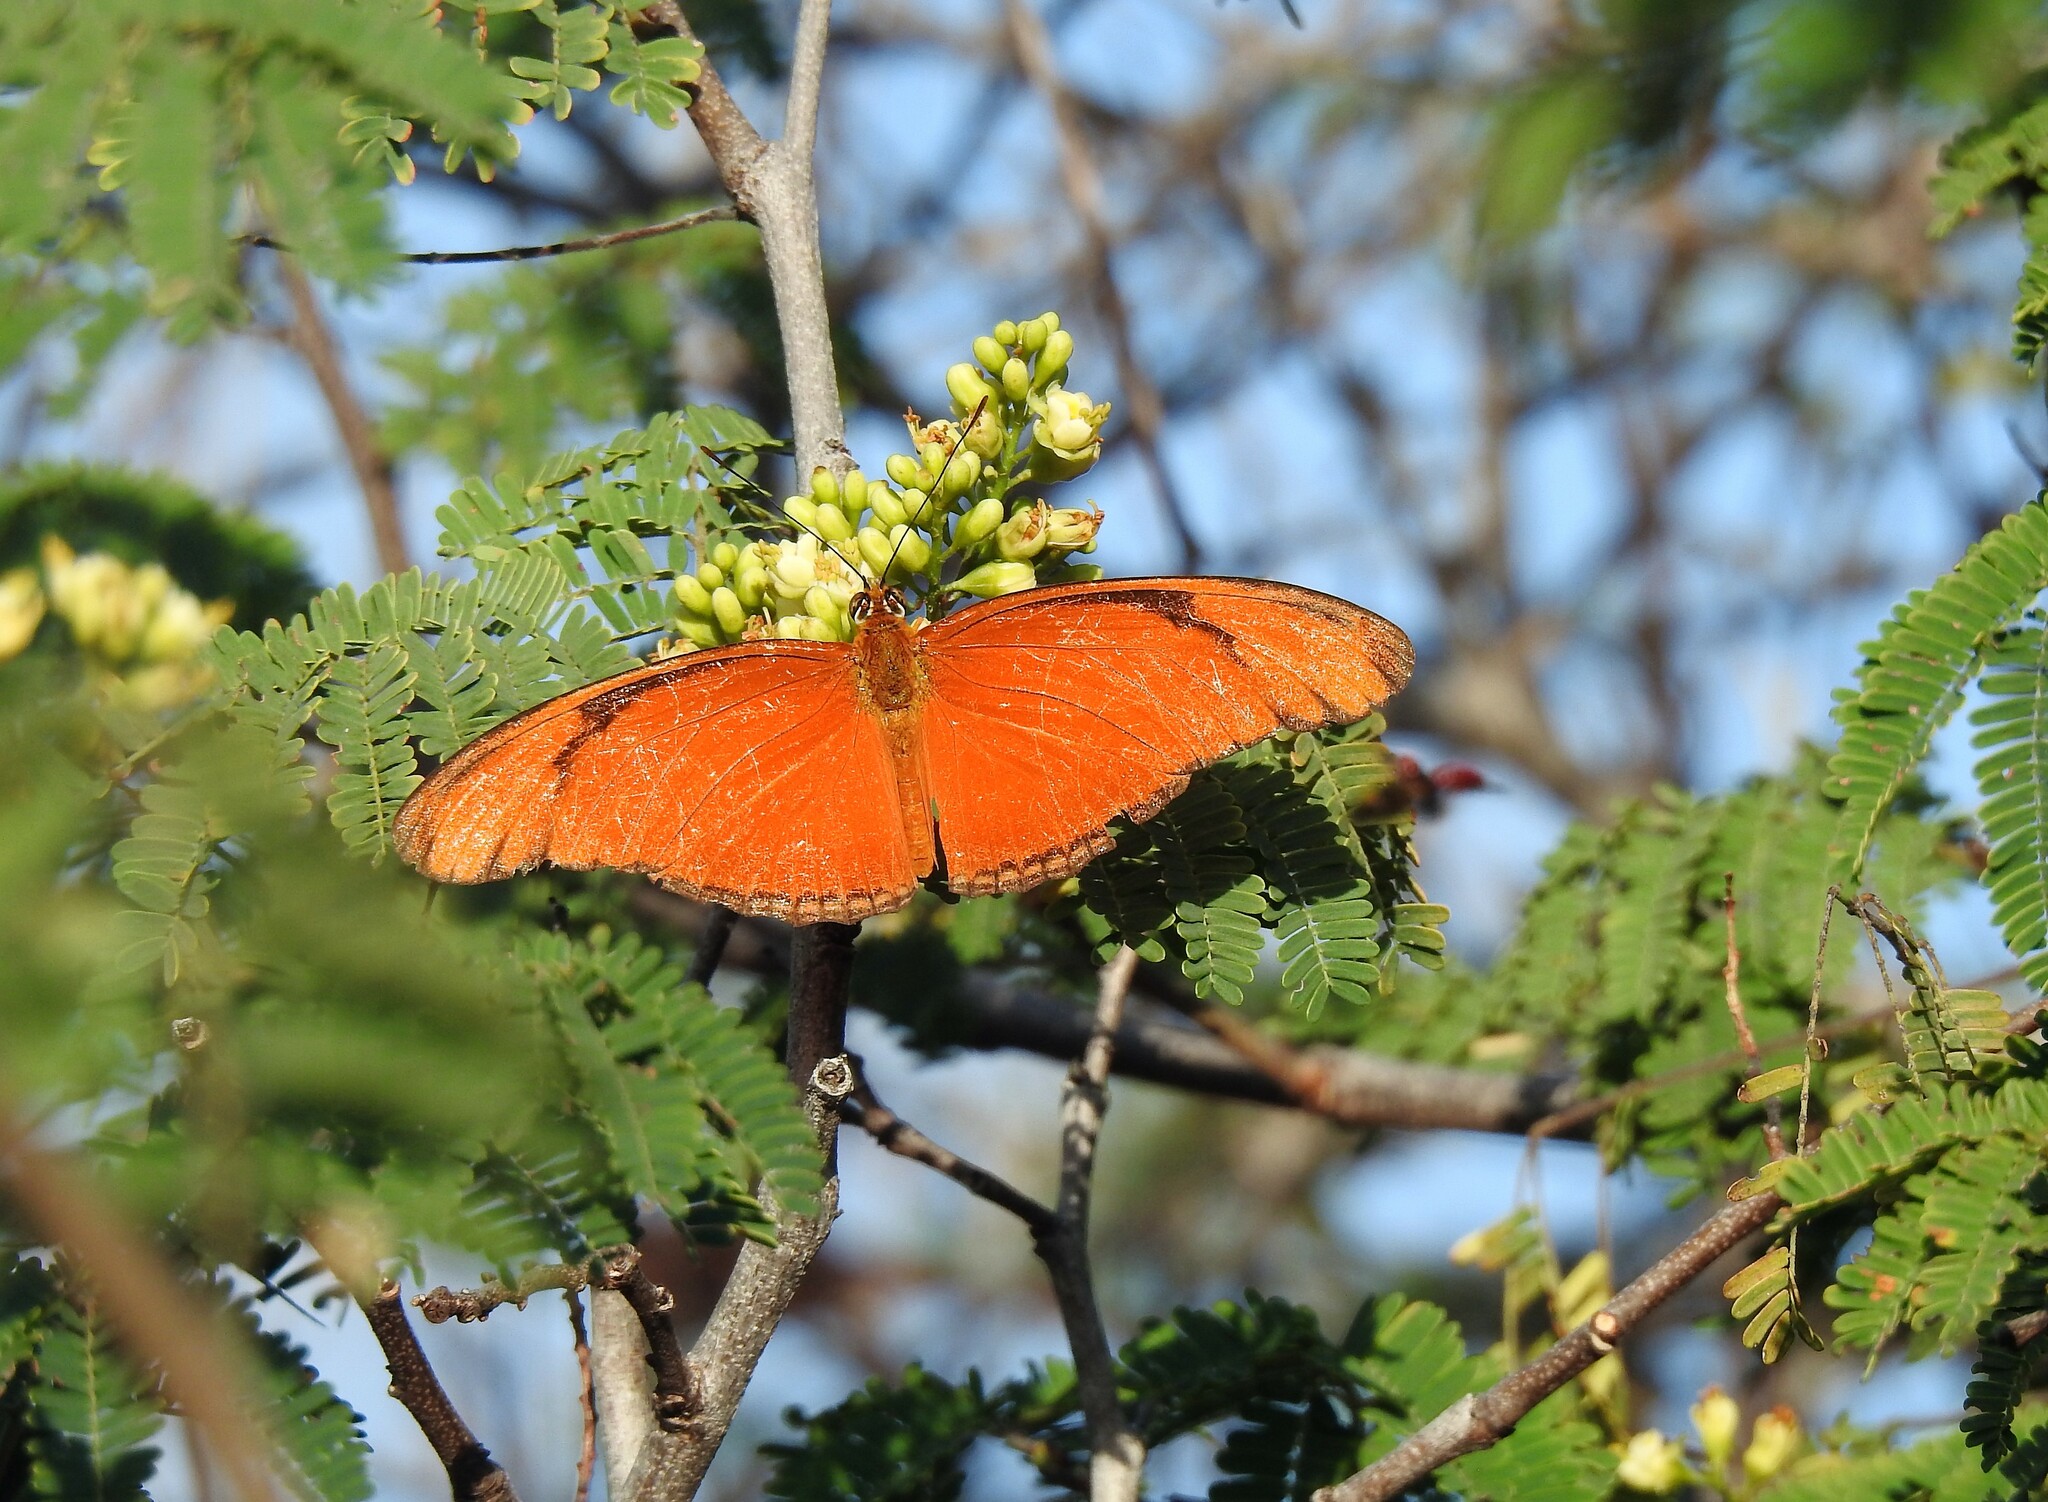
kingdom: Animalia
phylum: Arthropoda
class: Insecta
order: Lepidoptera
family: Nymphalidae
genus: Dryas
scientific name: Dryas iulia
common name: Flambeau
